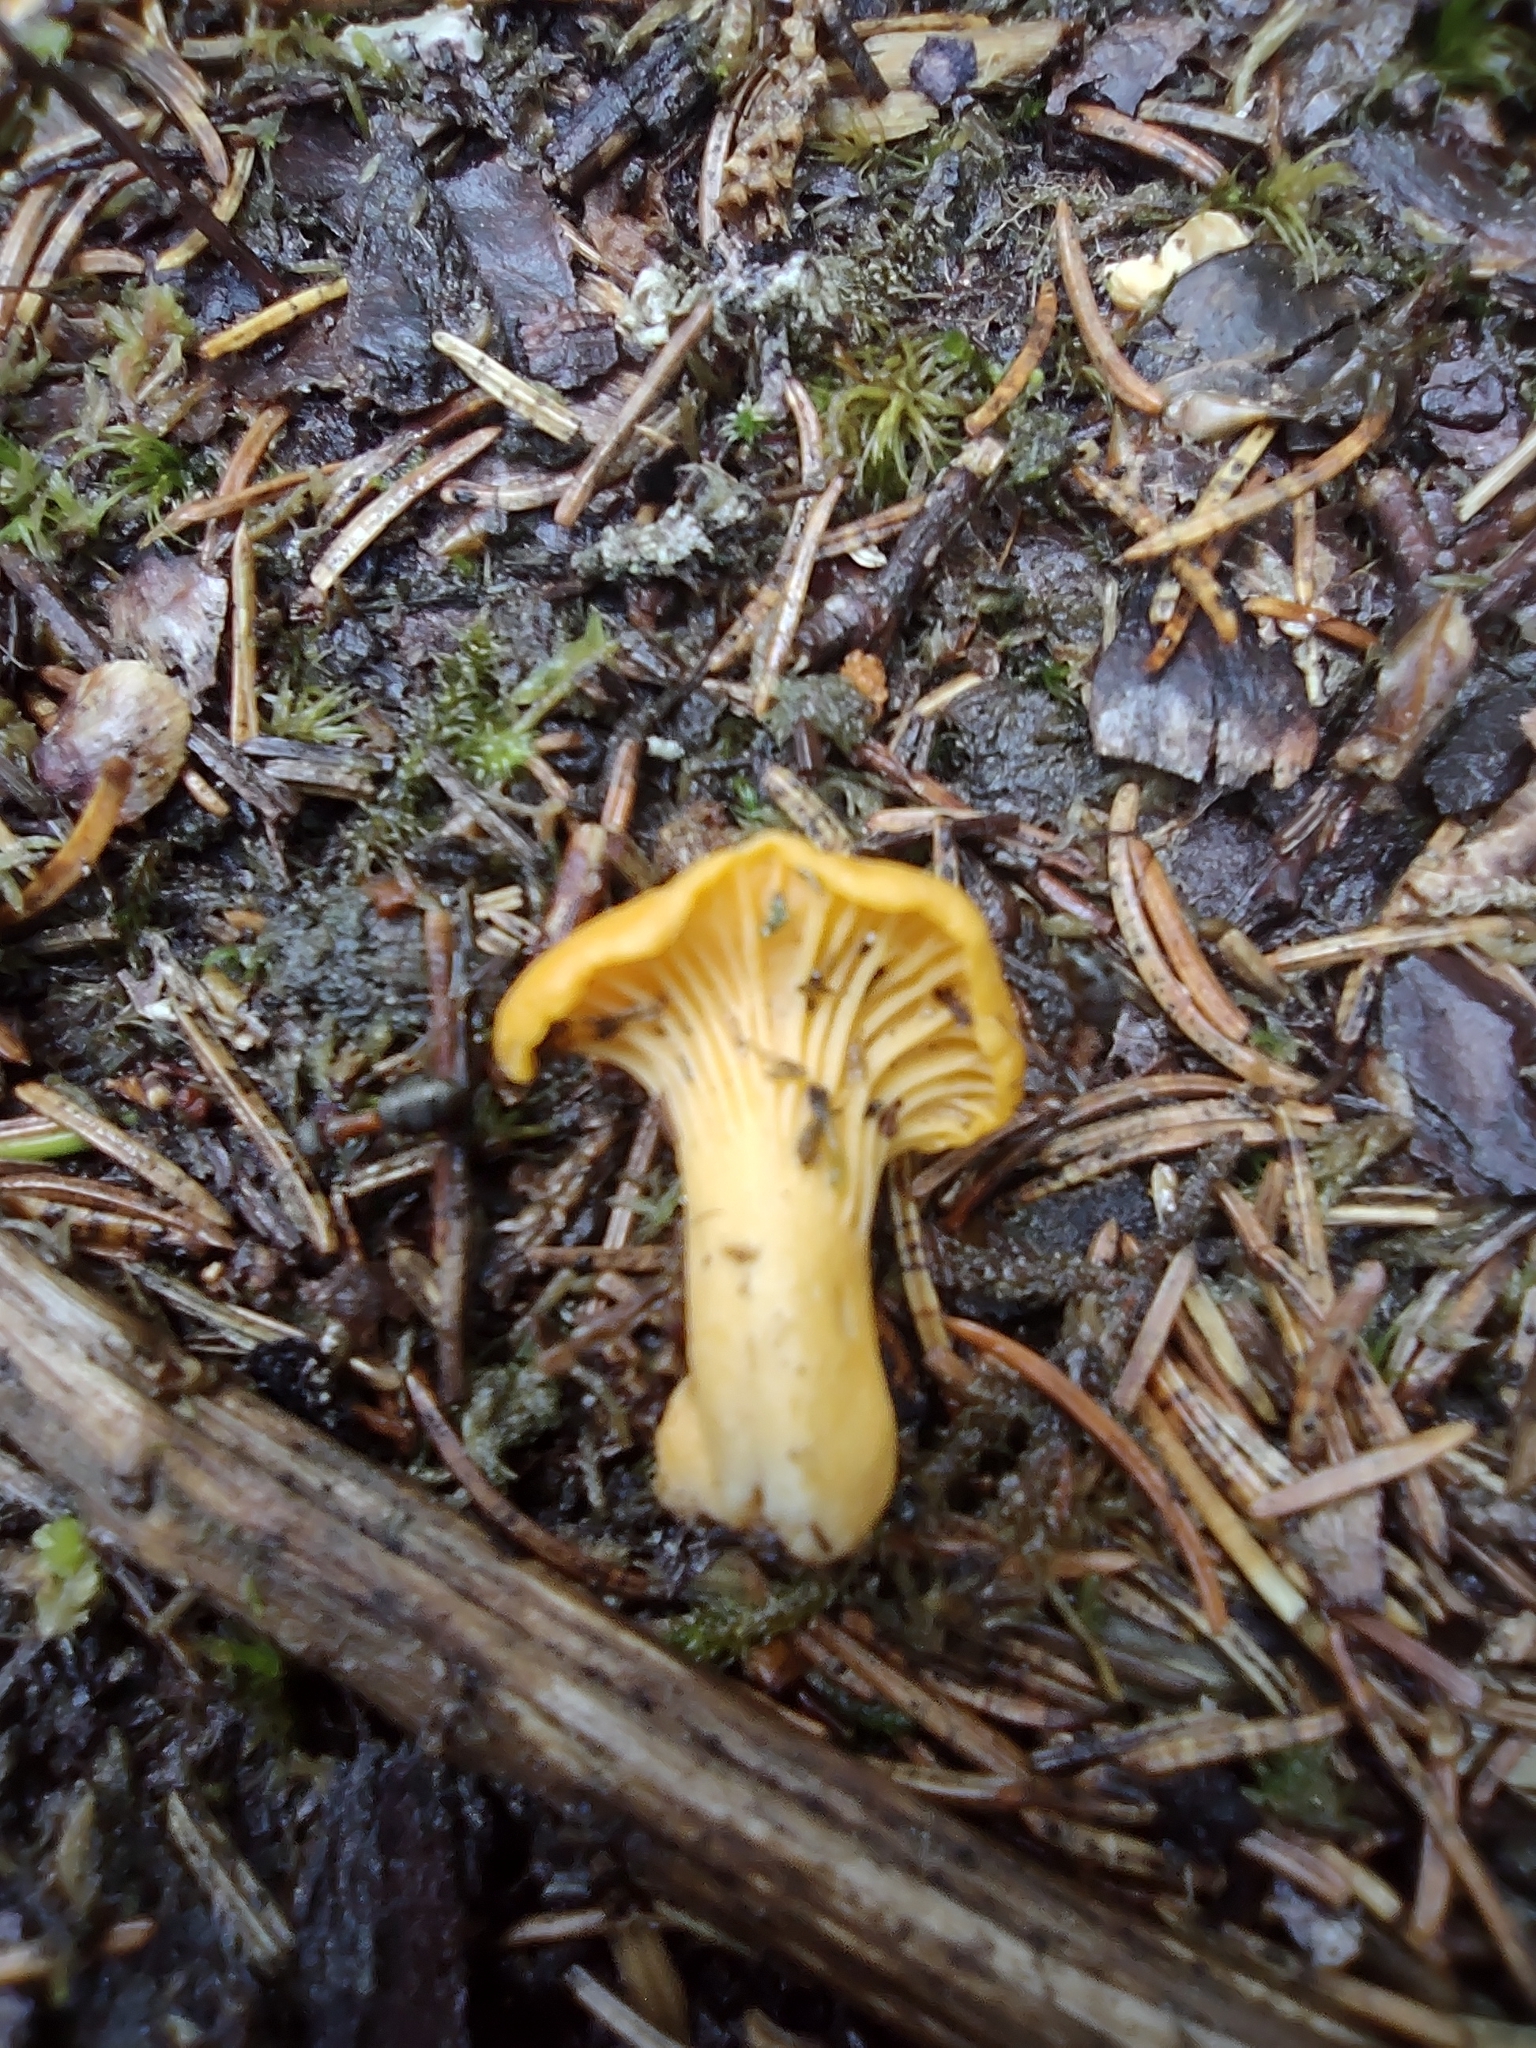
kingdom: Fungi
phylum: Basidiomycota
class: Agaricomycetes
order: Cantharellales
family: Hydnaceae
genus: Cantharellus
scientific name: Cantharellus cibarius
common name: Chanterelle
